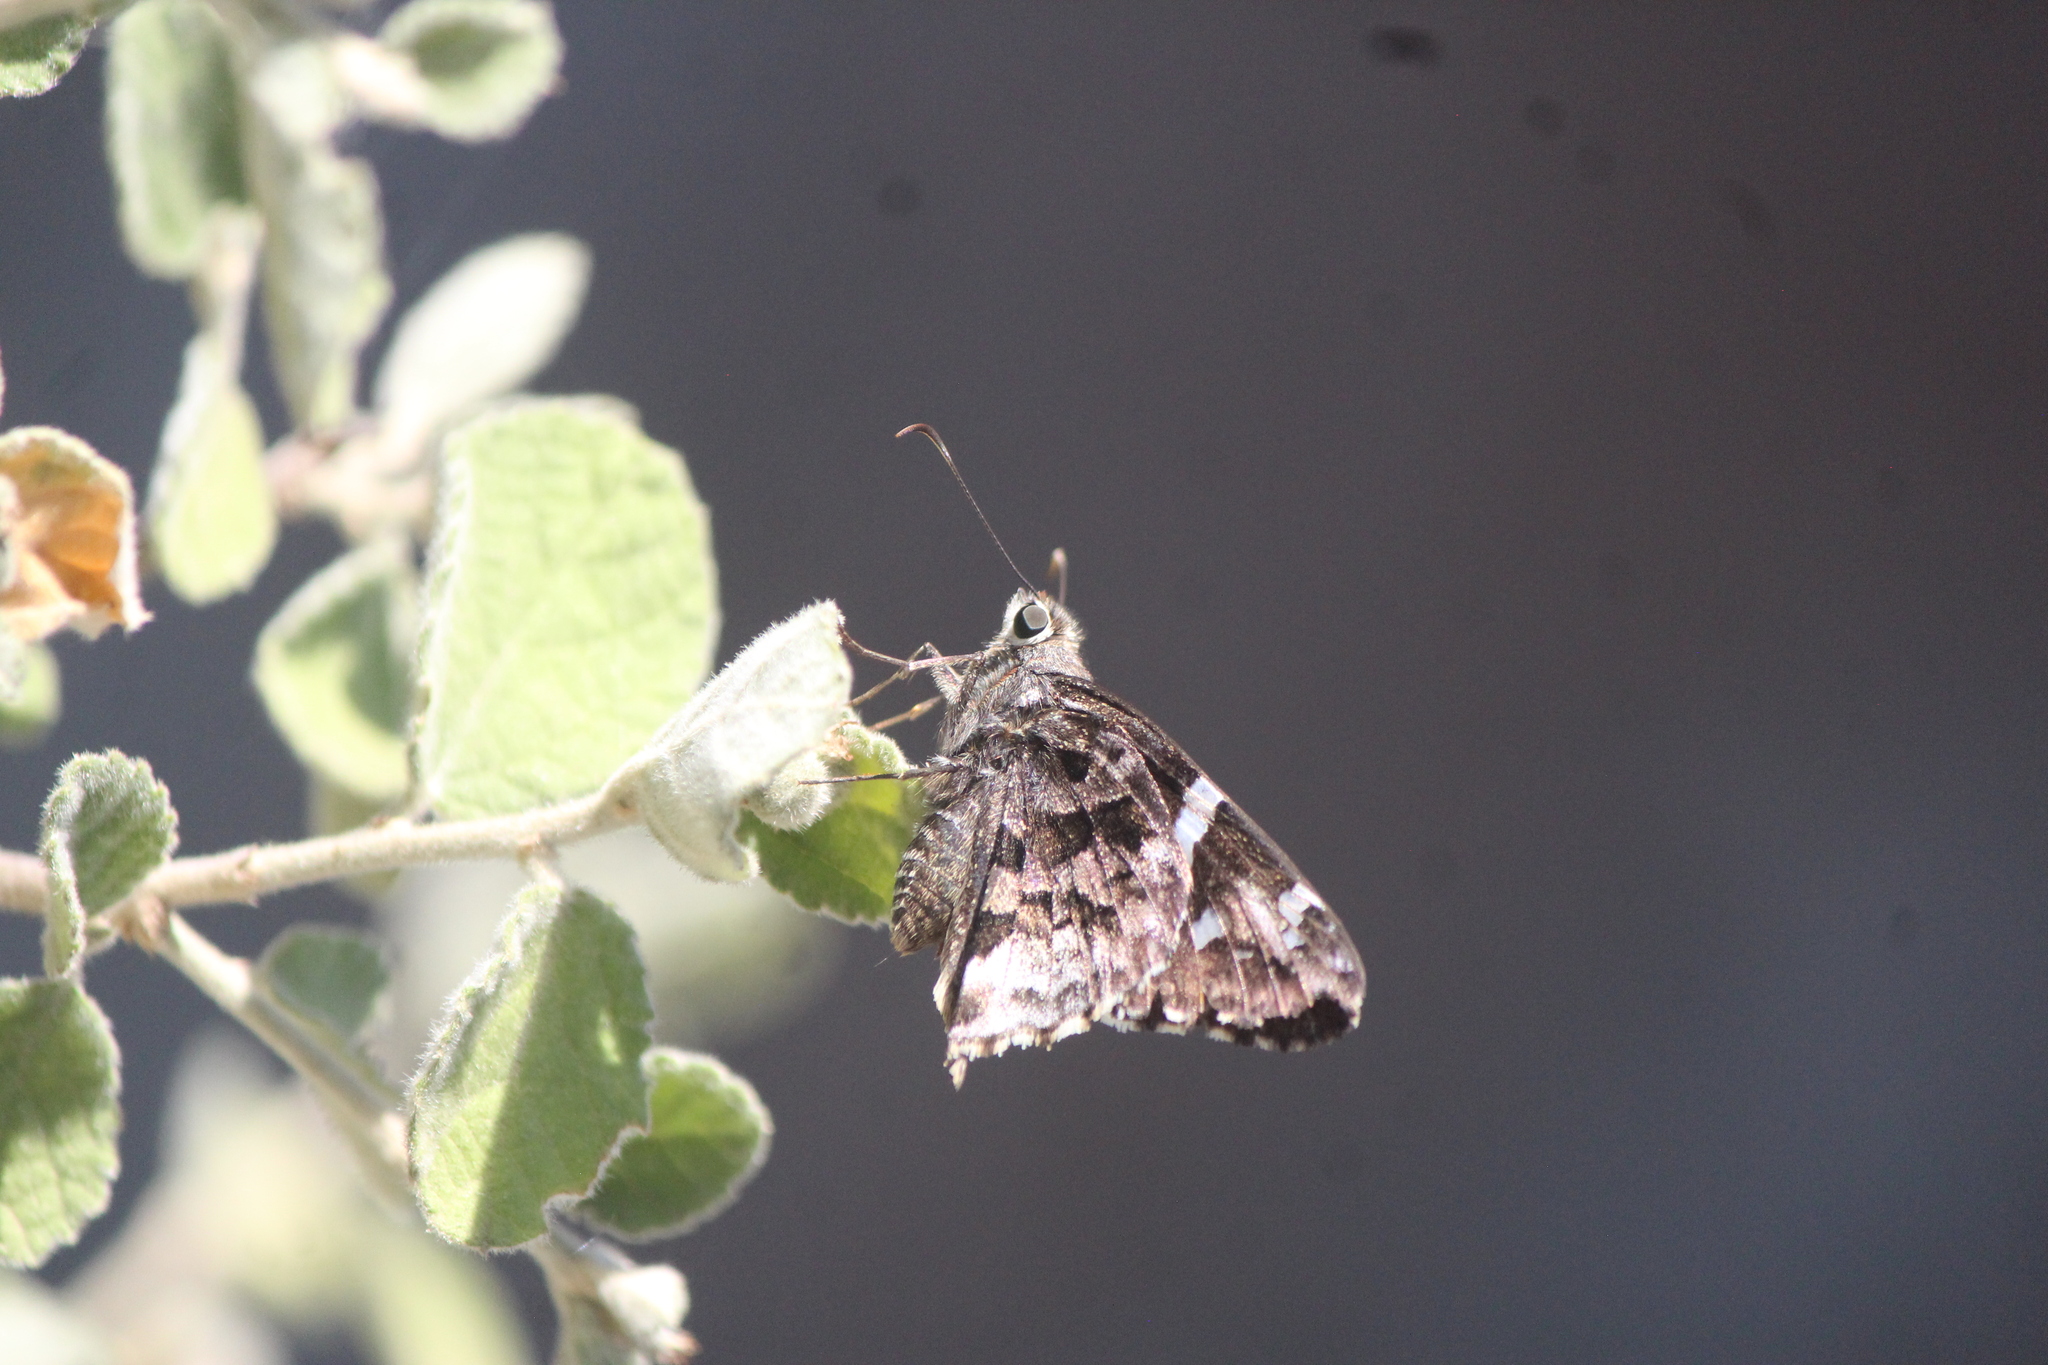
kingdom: Animalia
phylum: Arthropoda
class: Insecta
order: Lepidoptera
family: Hesperiidae
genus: Codatractus
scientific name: Codatractus arizonensis
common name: Arizona skipper
